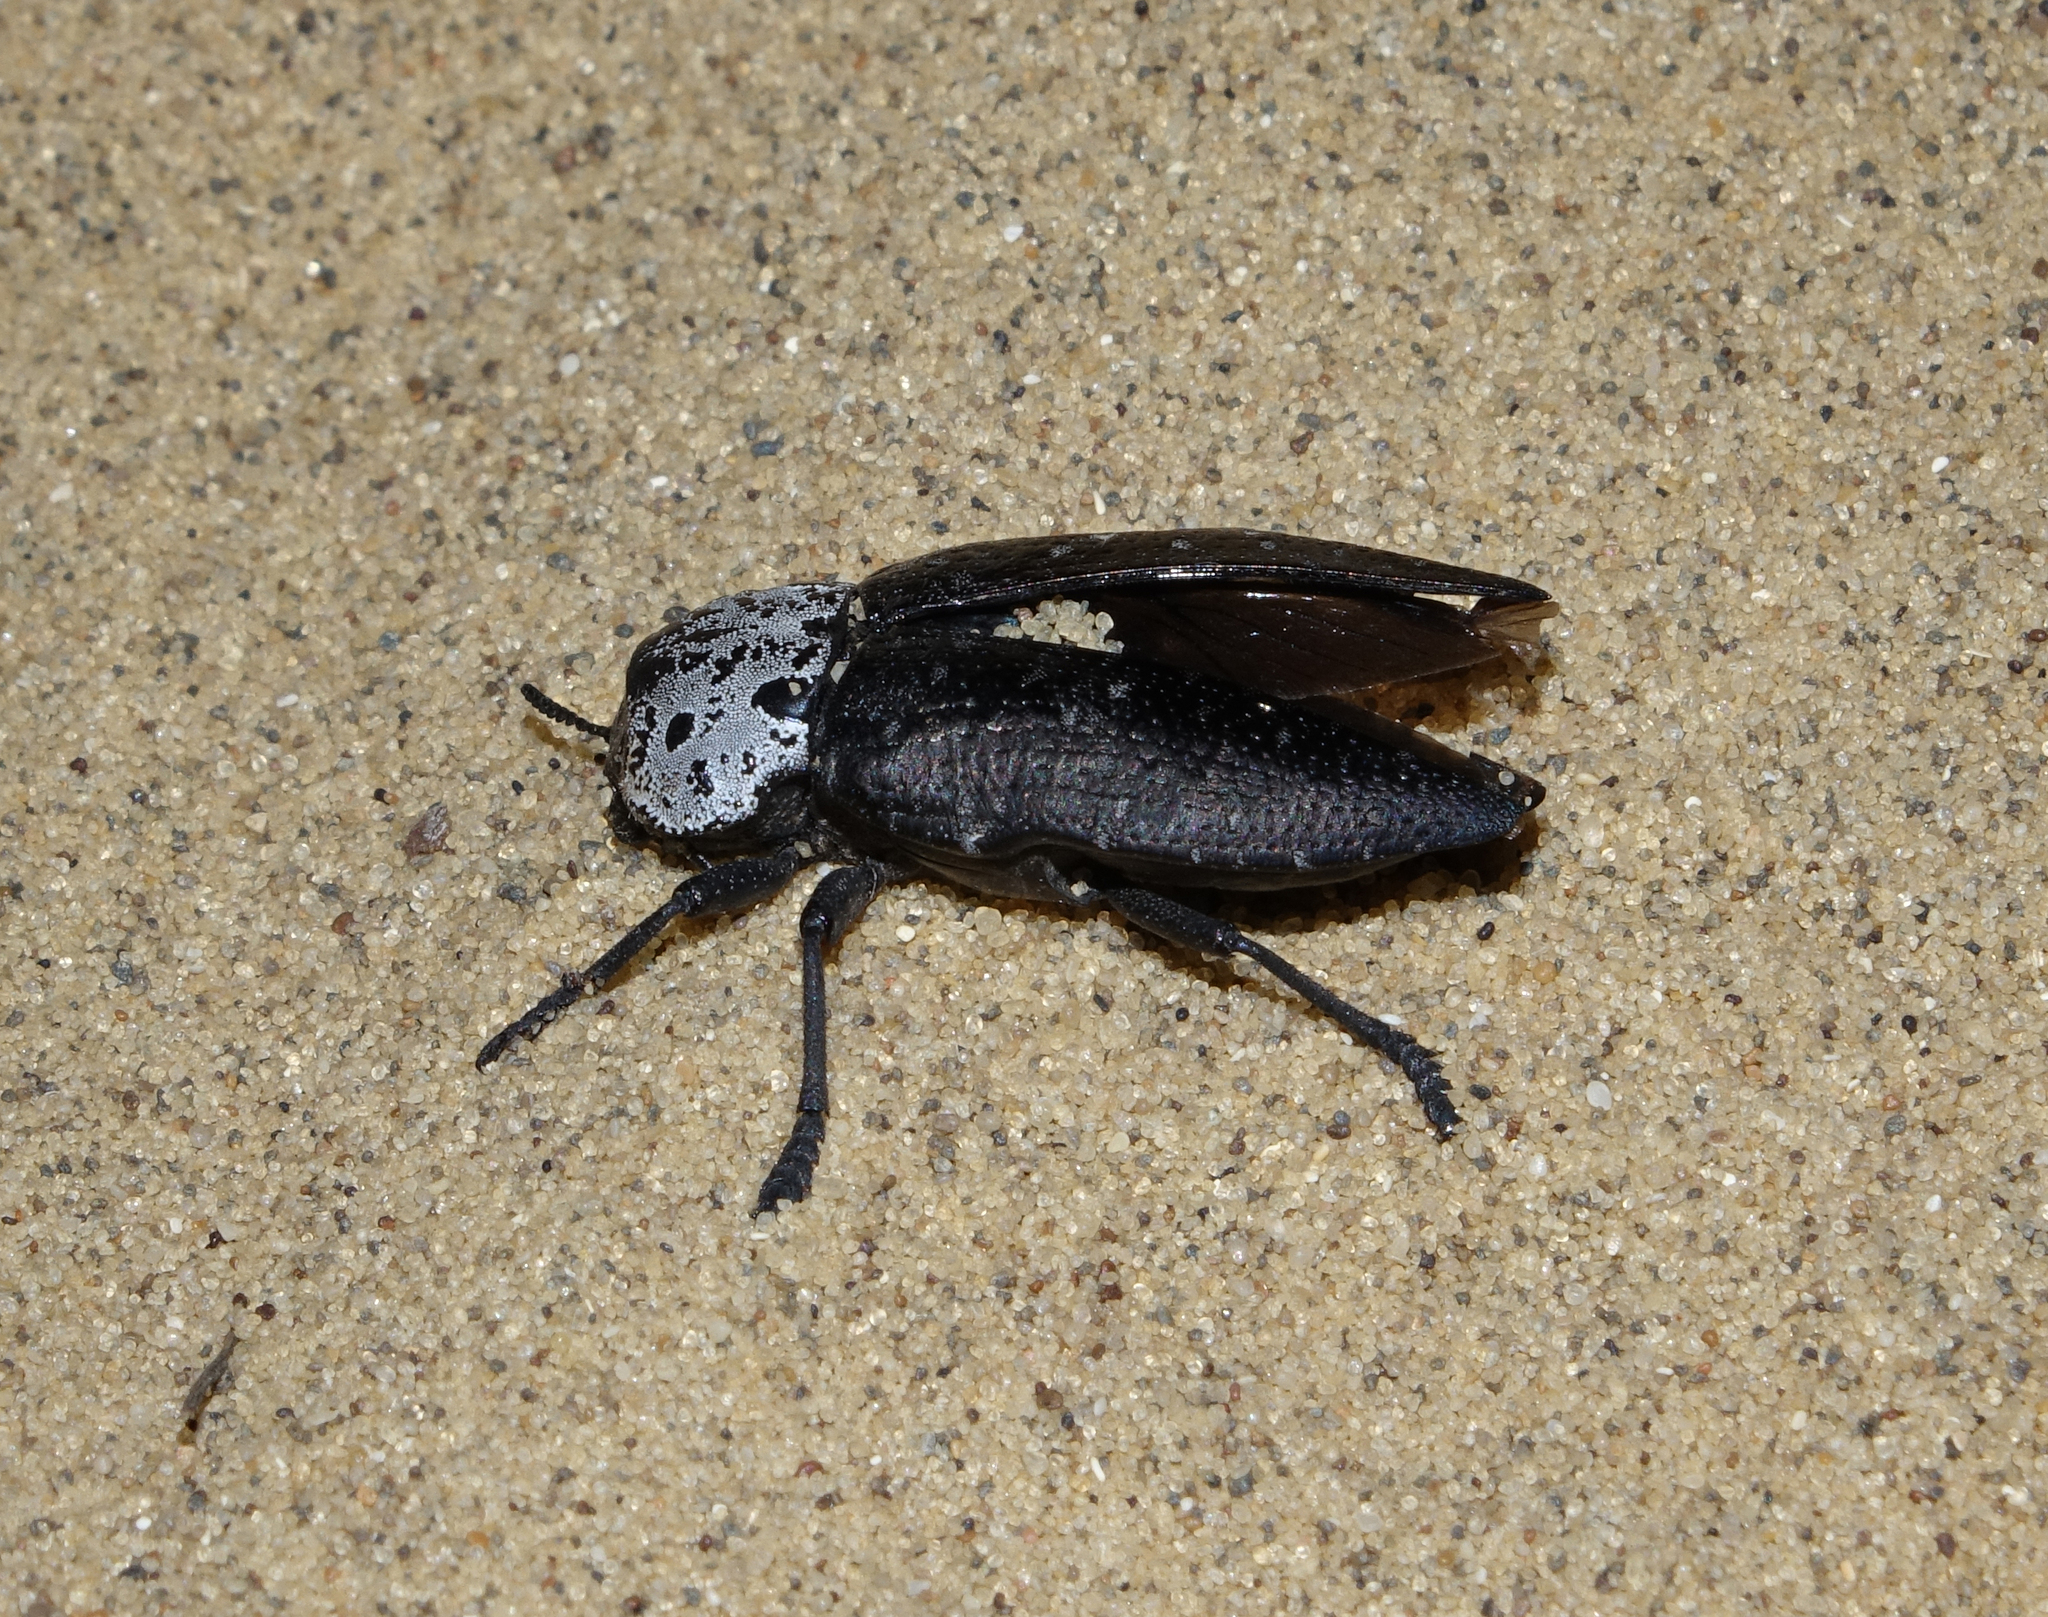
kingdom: Animalia
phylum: Arthropoda
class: Insecta
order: Coleoptera
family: Buprestidae
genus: Capnodis
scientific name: Capnodis tenebrionis
